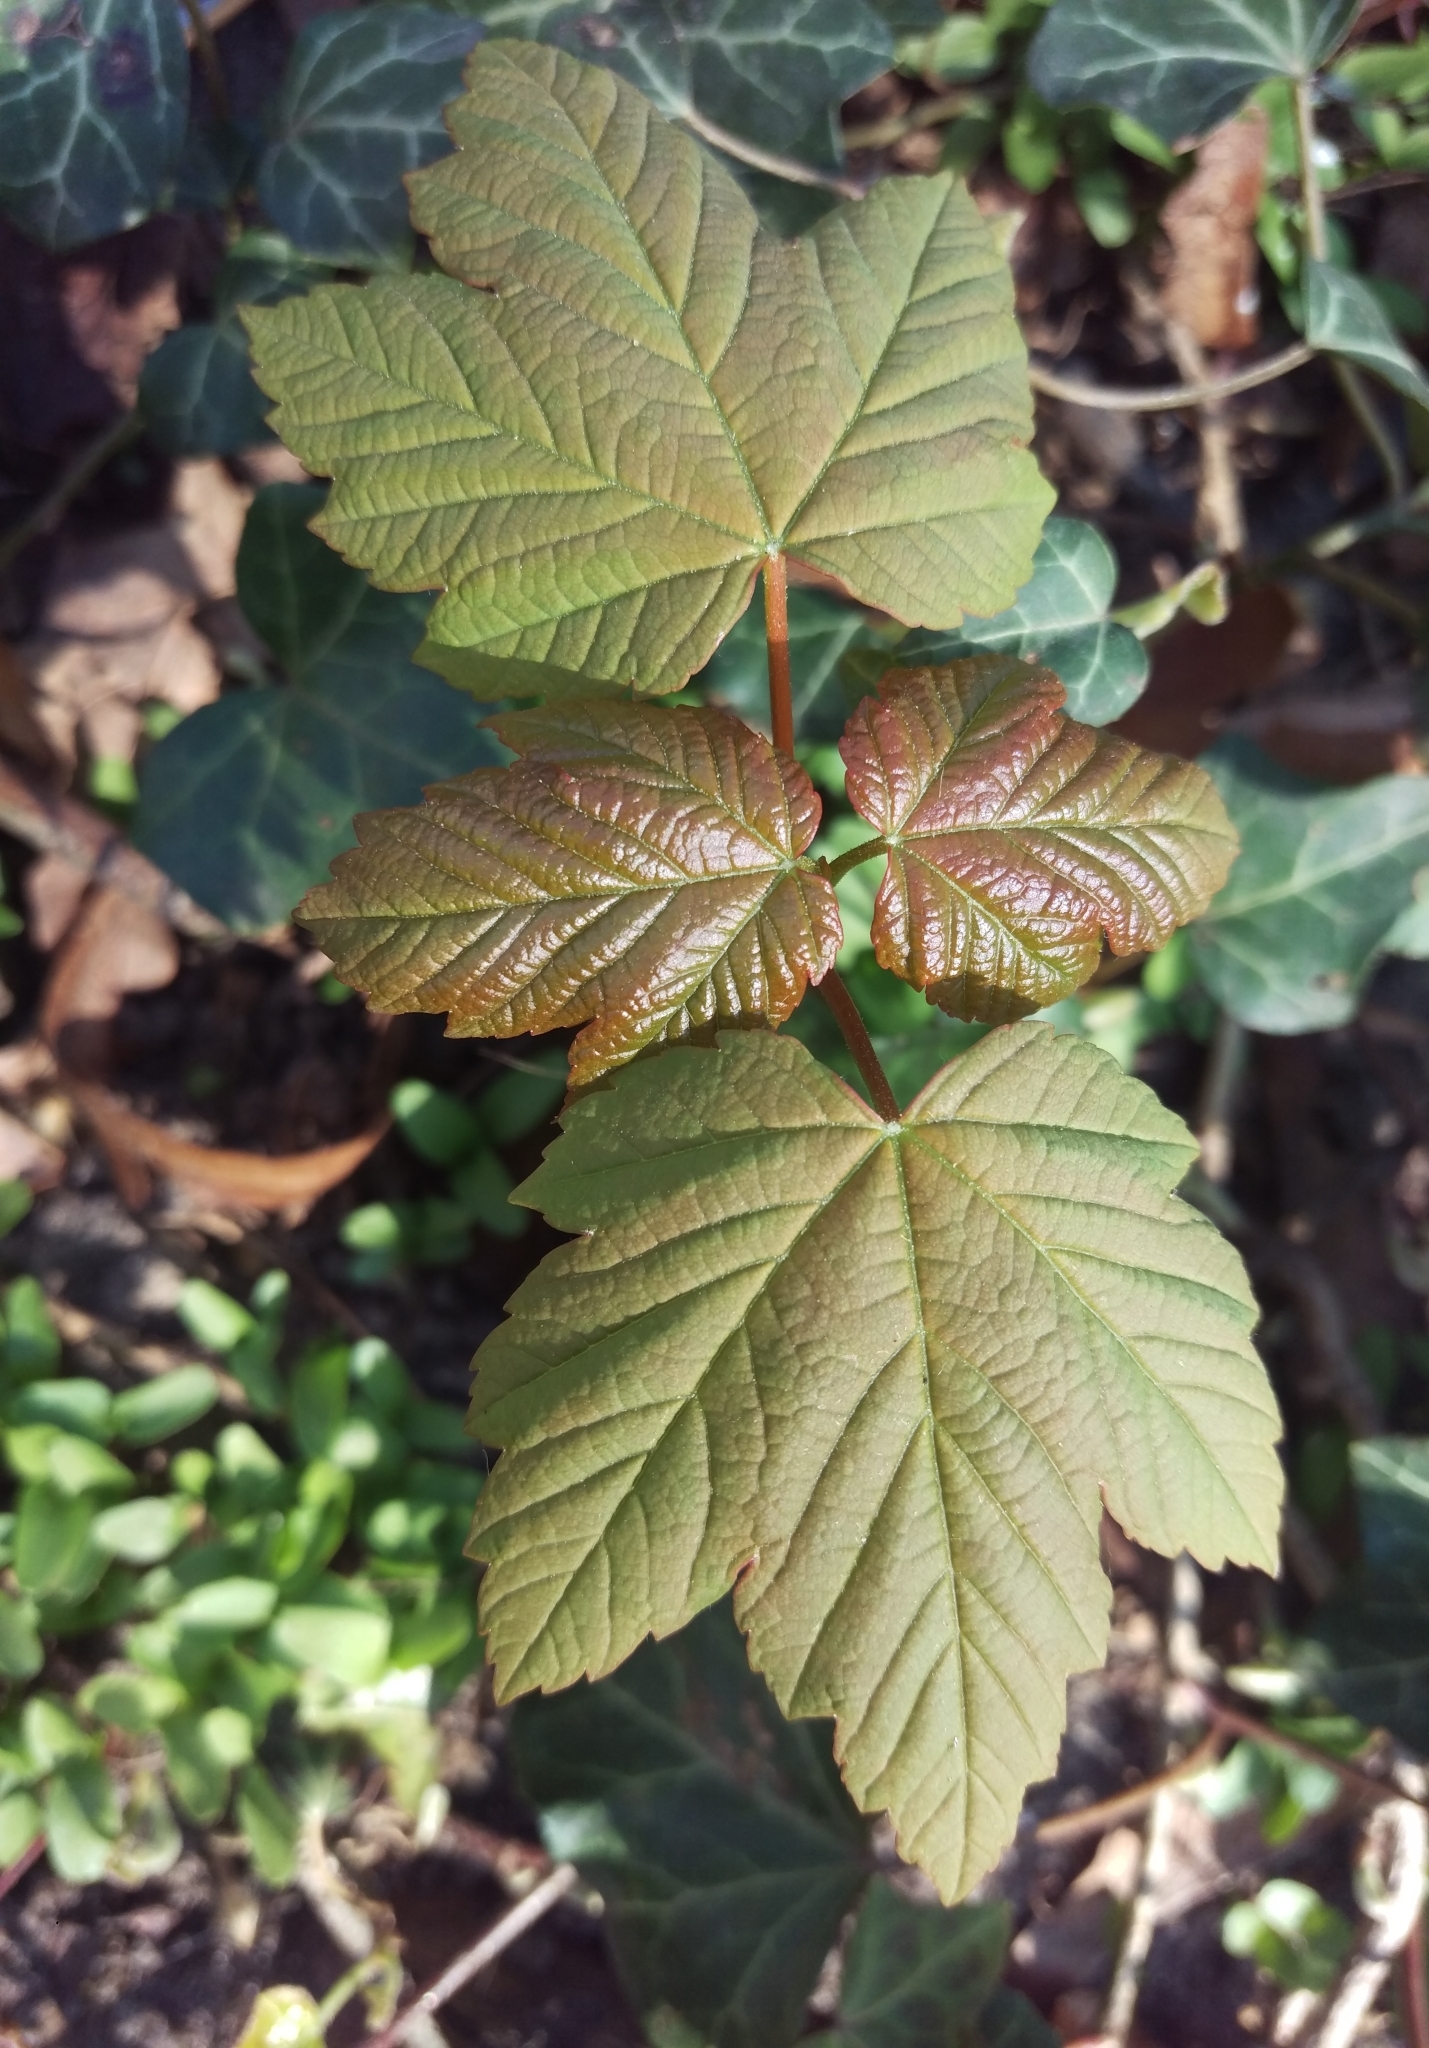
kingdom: Plantae
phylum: Tracheophyta
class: Magnoliopsida
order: Sapindales
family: Sapindaceae
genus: Acer
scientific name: Acer pseudoplatanus
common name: Sycamore
